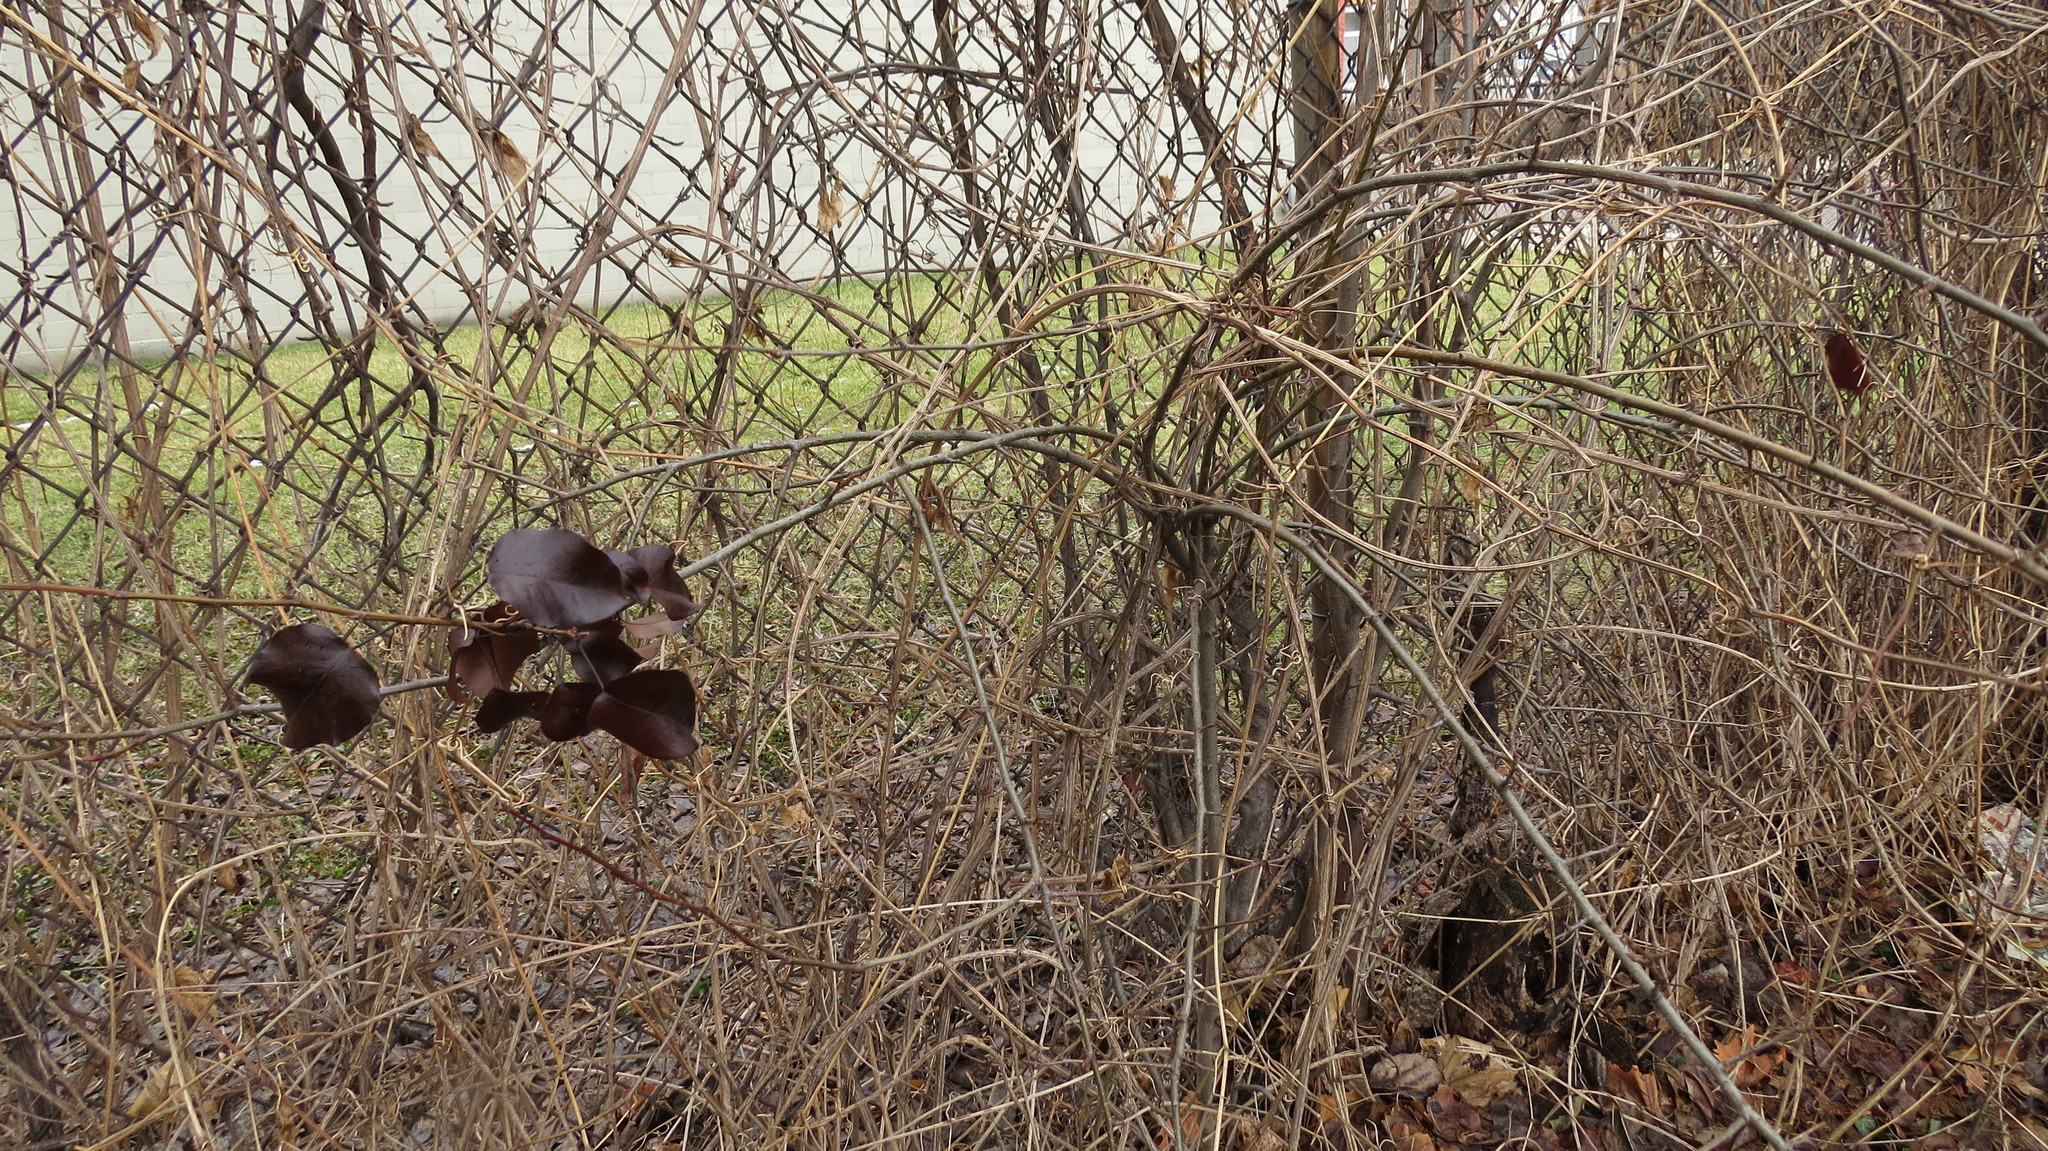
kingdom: Plantae
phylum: Tracheophyta
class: Magnoliopsida
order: Rosales
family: Rosaceae
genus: Pyrus
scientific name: Pyrus calleryana
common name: Callery pear
